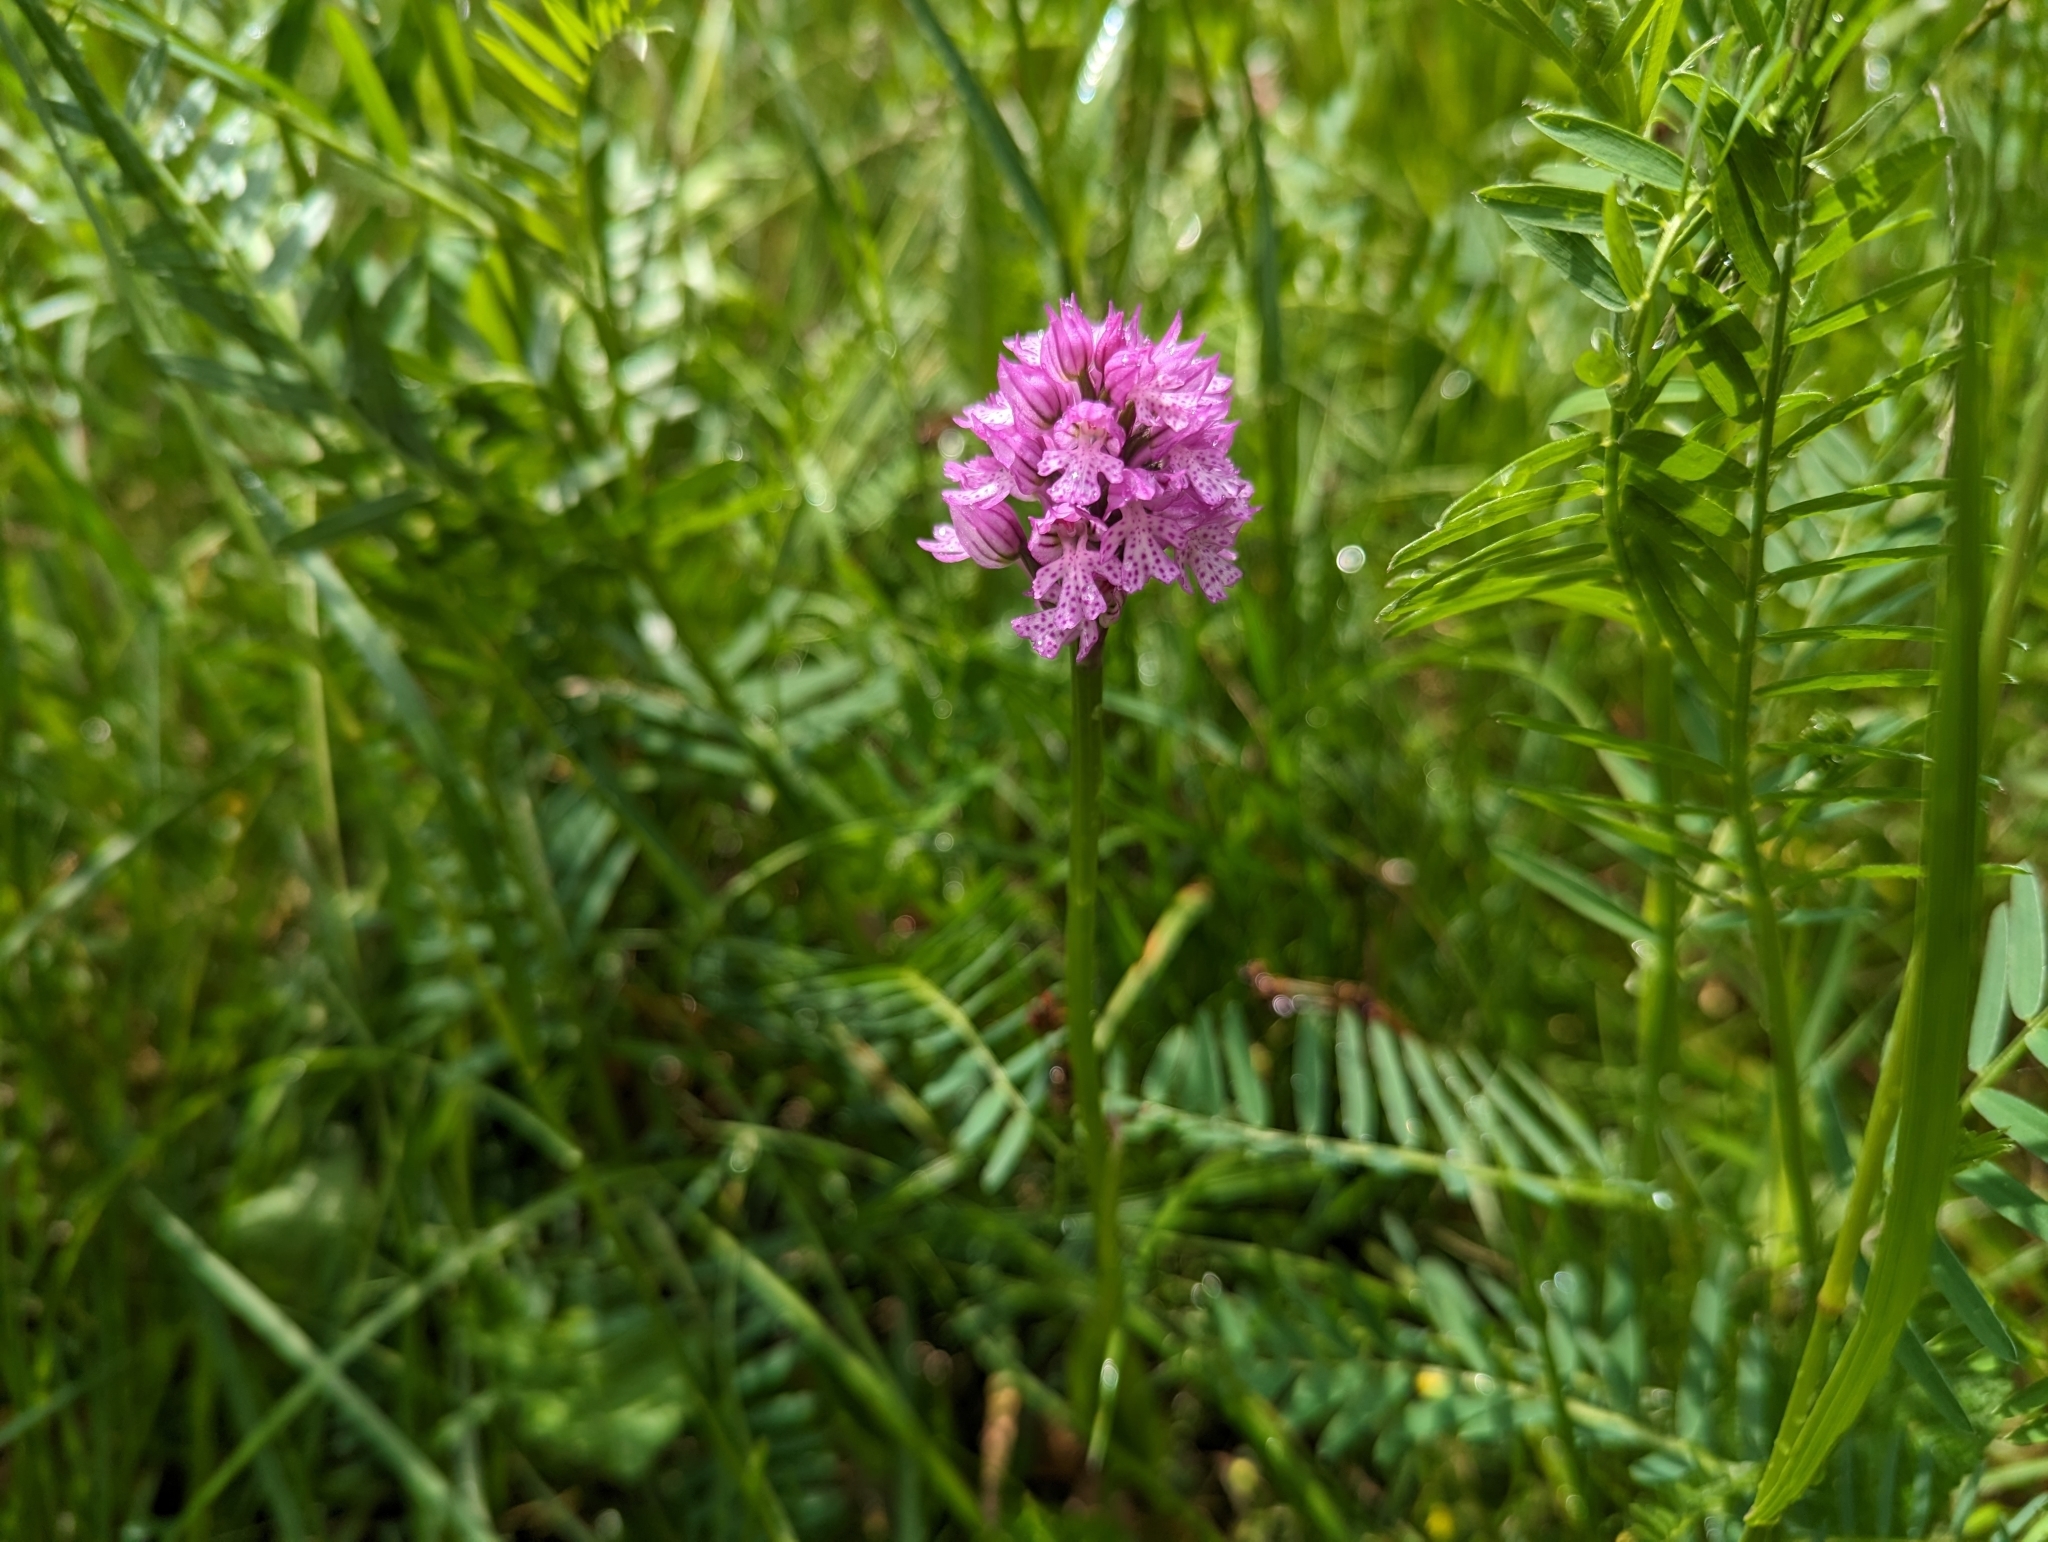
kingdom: Plantae
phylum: Tracheophyta
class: Liliopsida
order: Asparagales
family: Orchidaceae
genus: Neotinea
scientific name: Neotinea tridentata
